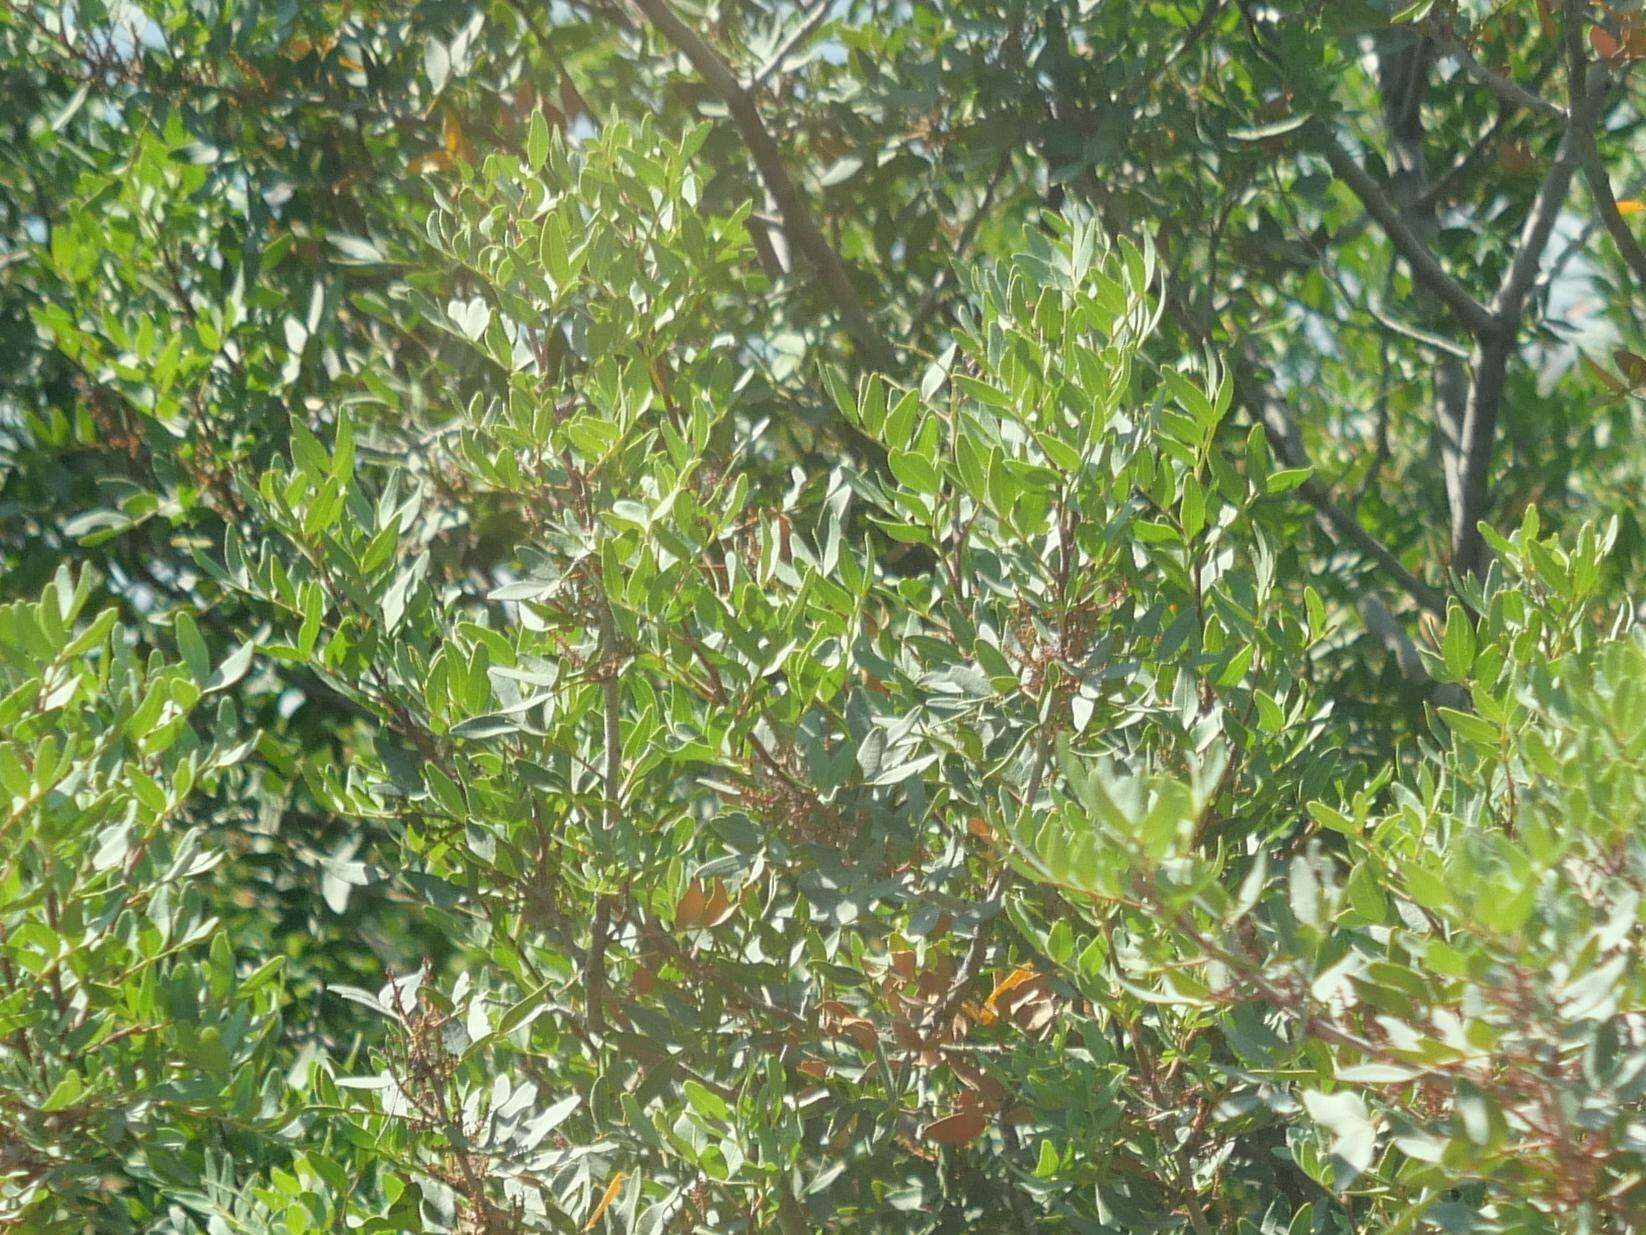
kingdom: Plantae
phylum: Tracheophyta
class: Magnoliopsida
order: Sapindales
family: Anacardiaceae
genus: Pistacia
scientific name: Pistacia lentiscus
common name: Lentisk
